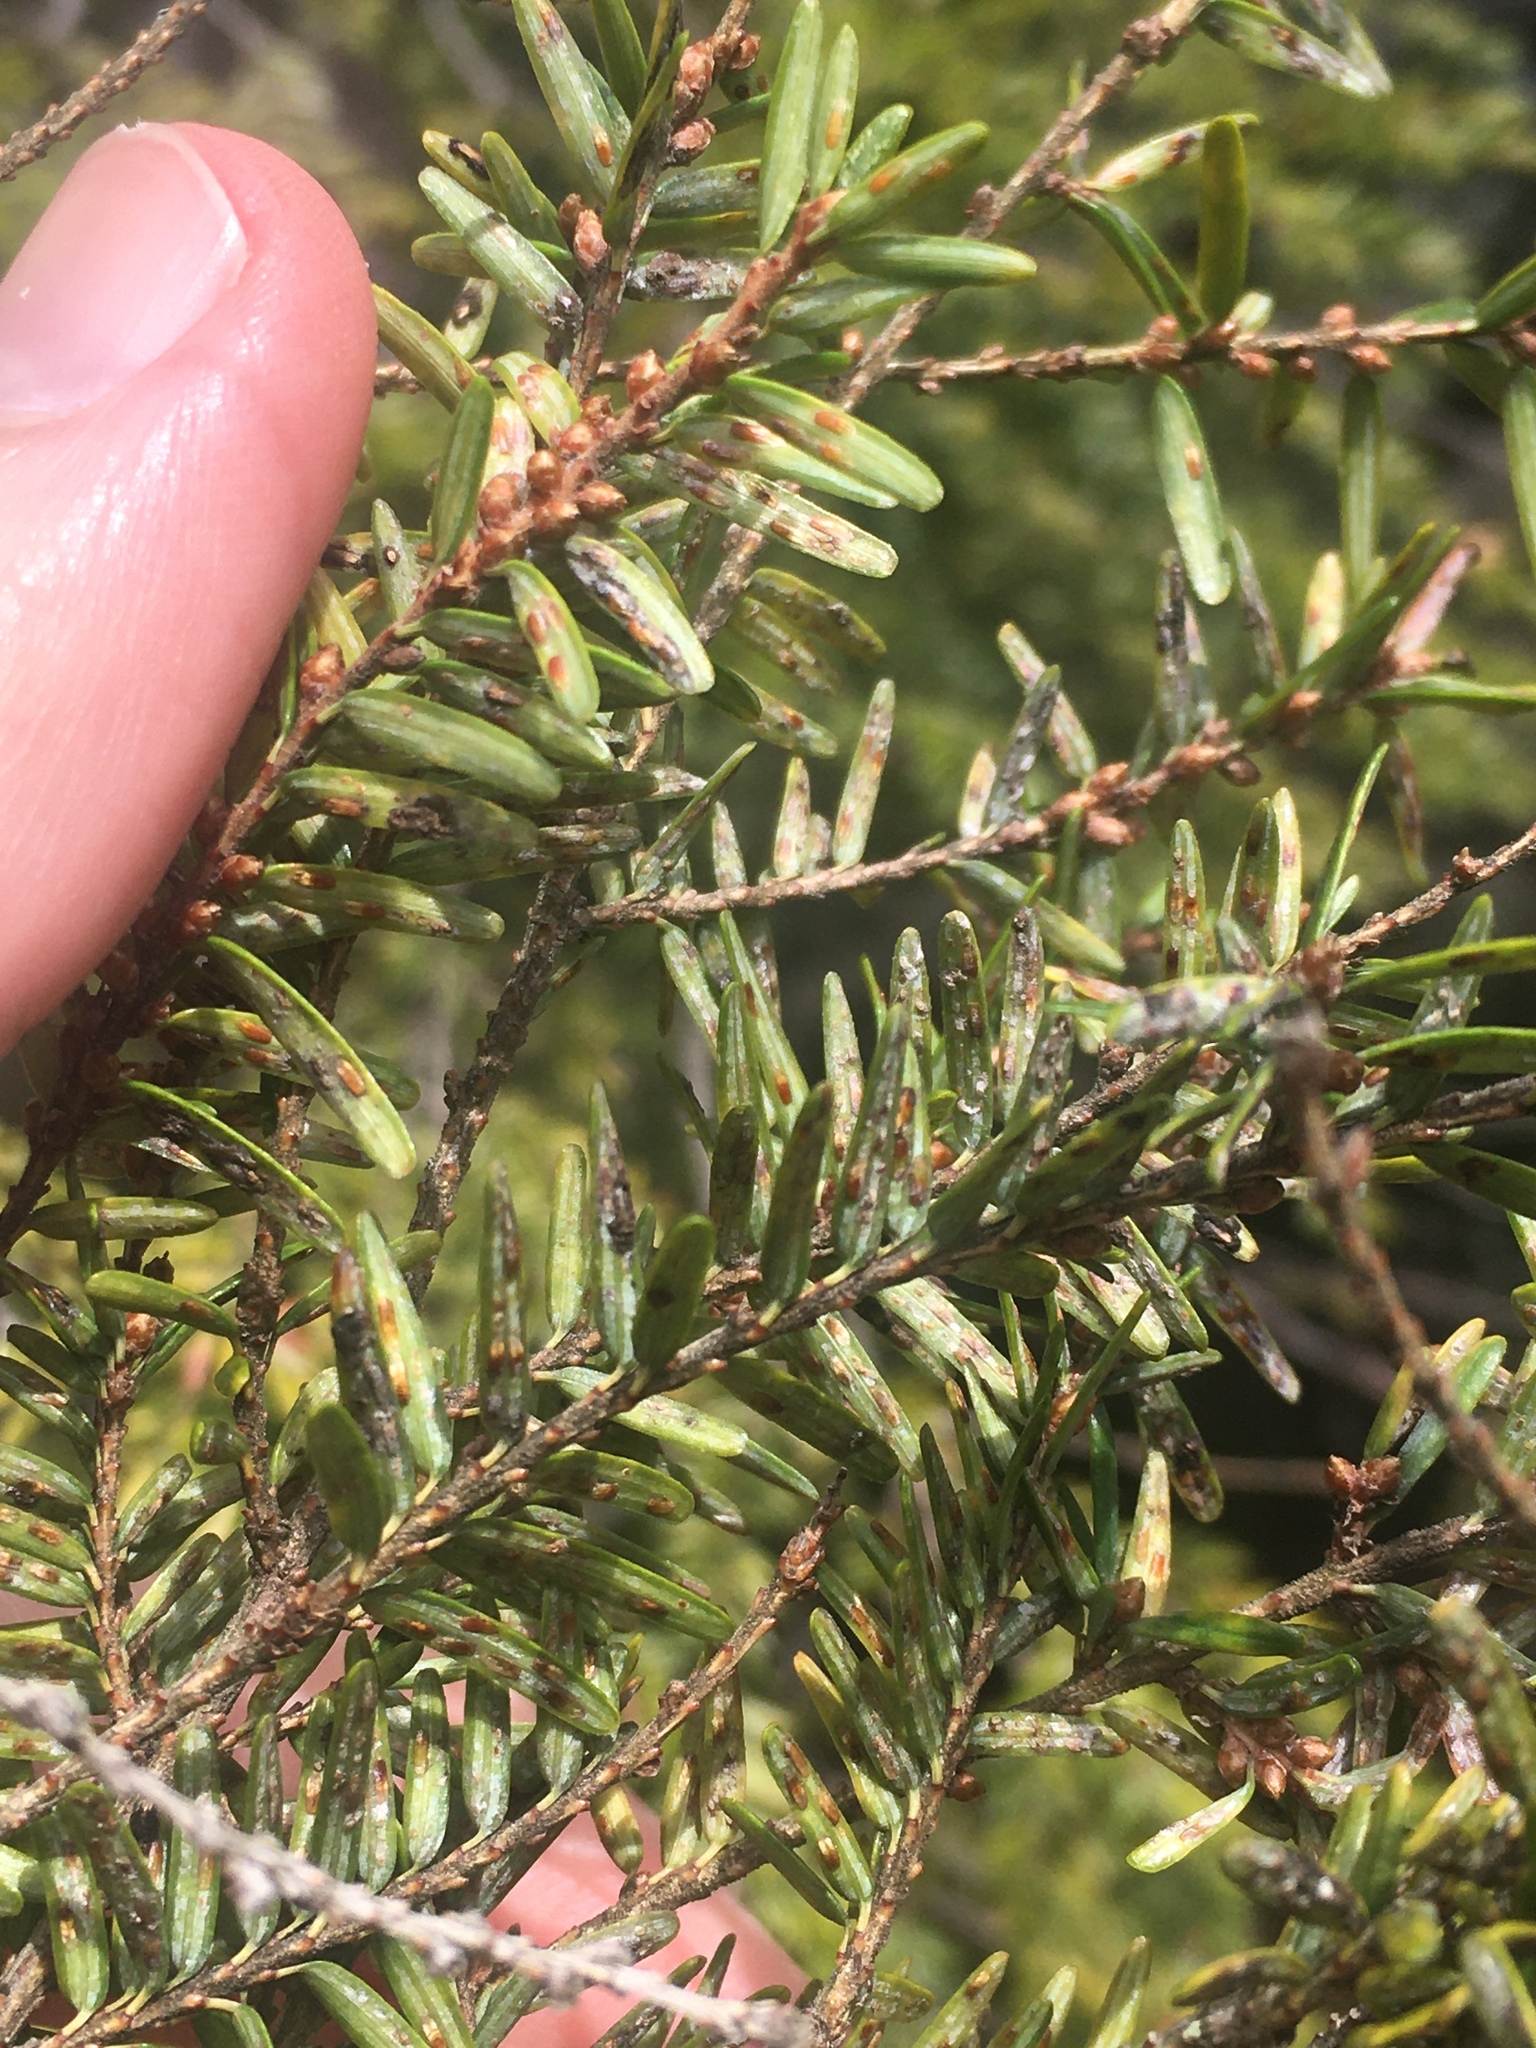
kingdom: Animalia
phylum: Arthropoda
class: Insecta
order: Hemiptera
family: Diaspididae
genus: Fiorinia
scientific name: Fiorinia externa
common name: Elongate hemlock scale
